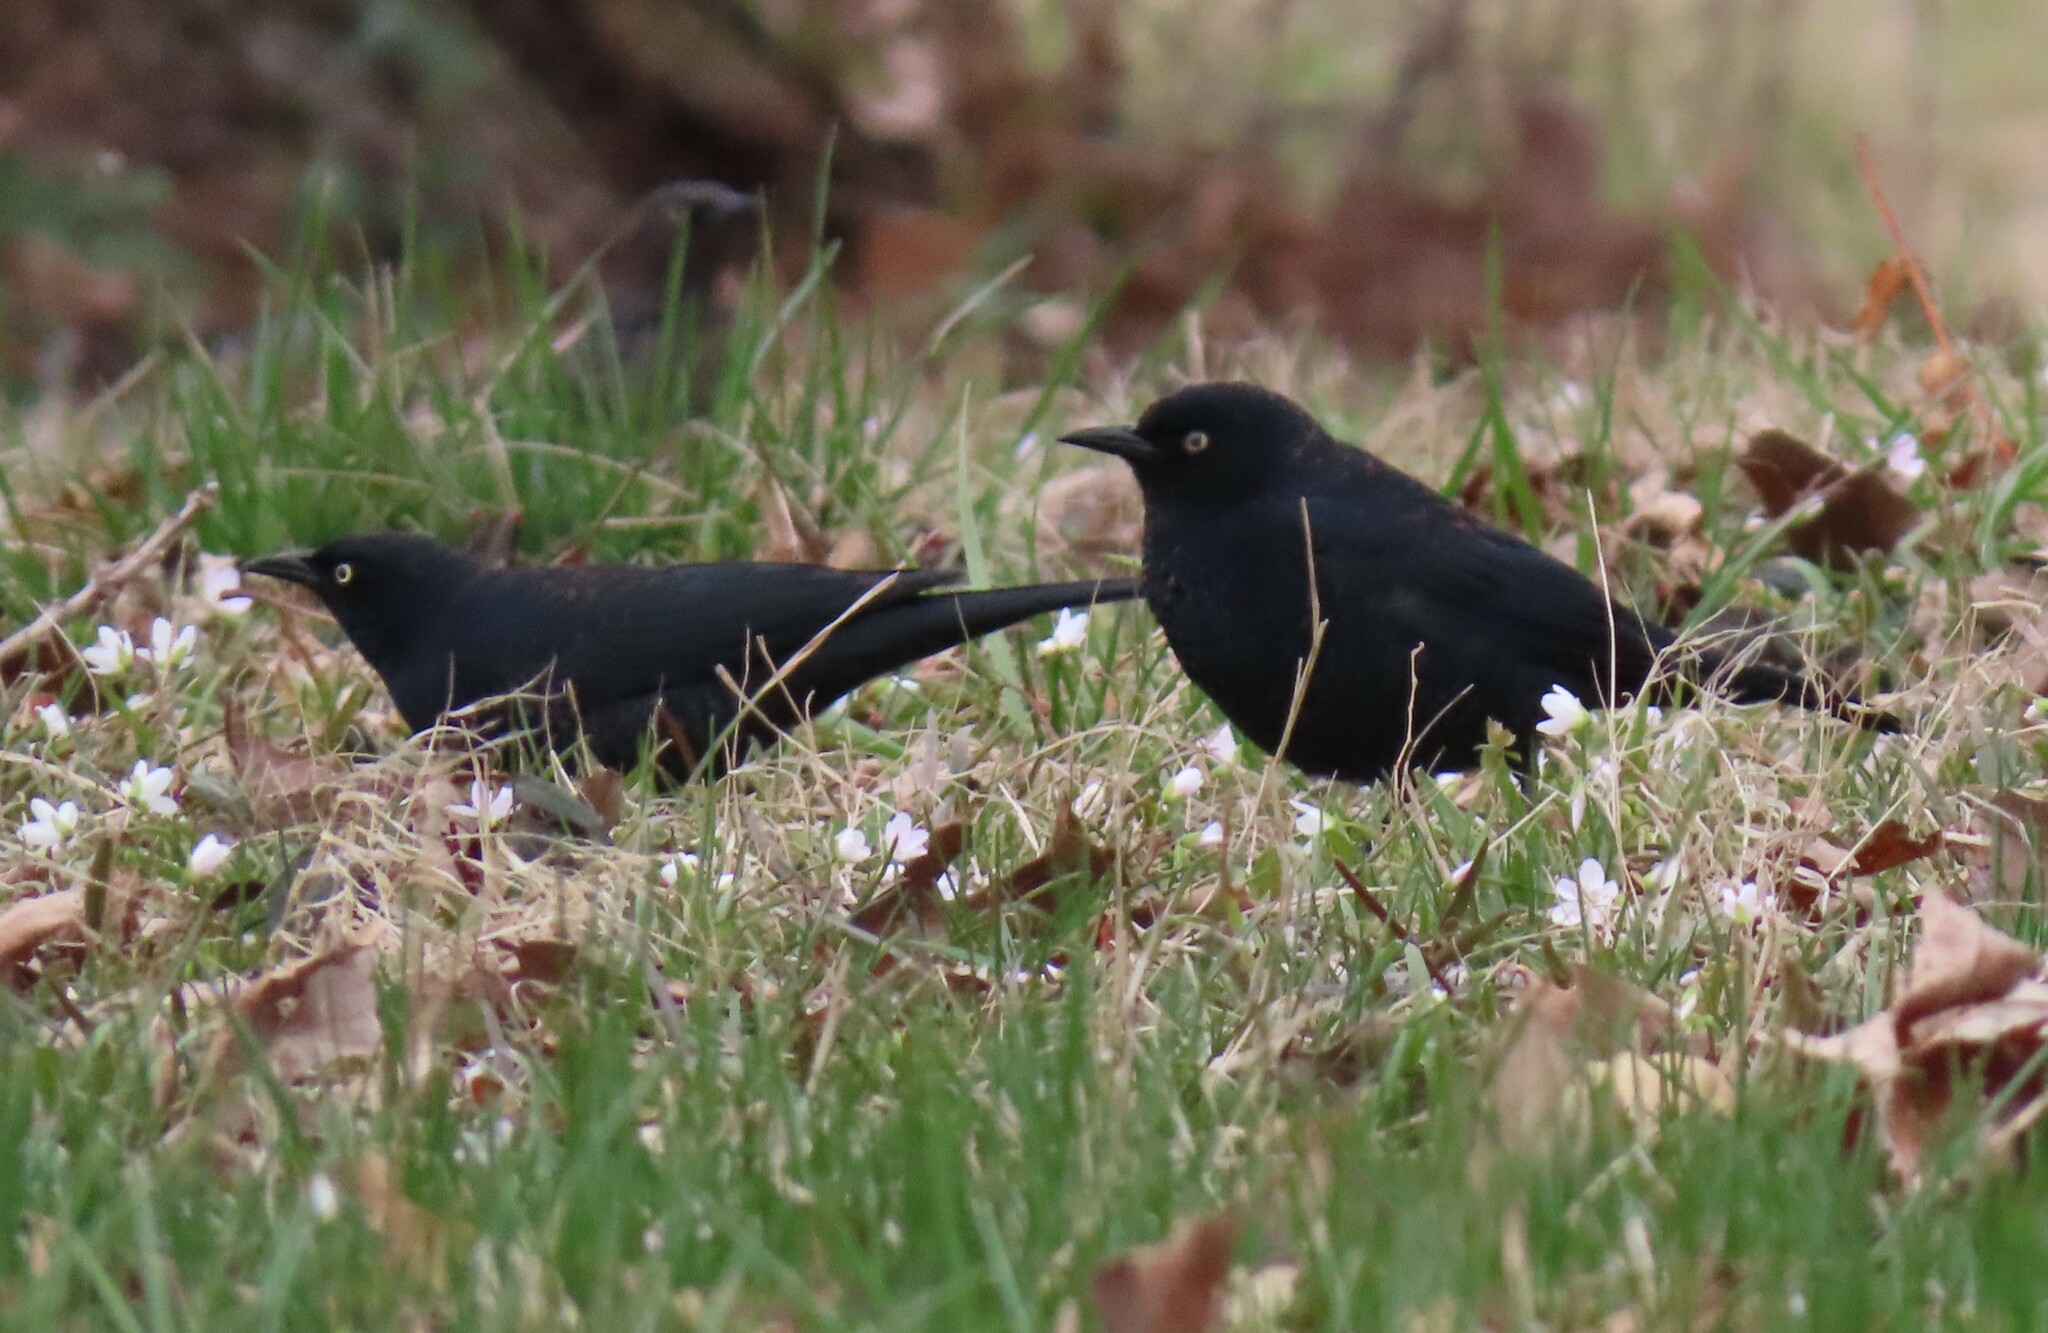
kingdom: Animalia
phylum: Chordata
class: Aves
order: Passeriformes
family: Icteridae
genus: Euphagus
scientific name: Euphagus carolinus
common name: Rusty blackbird
